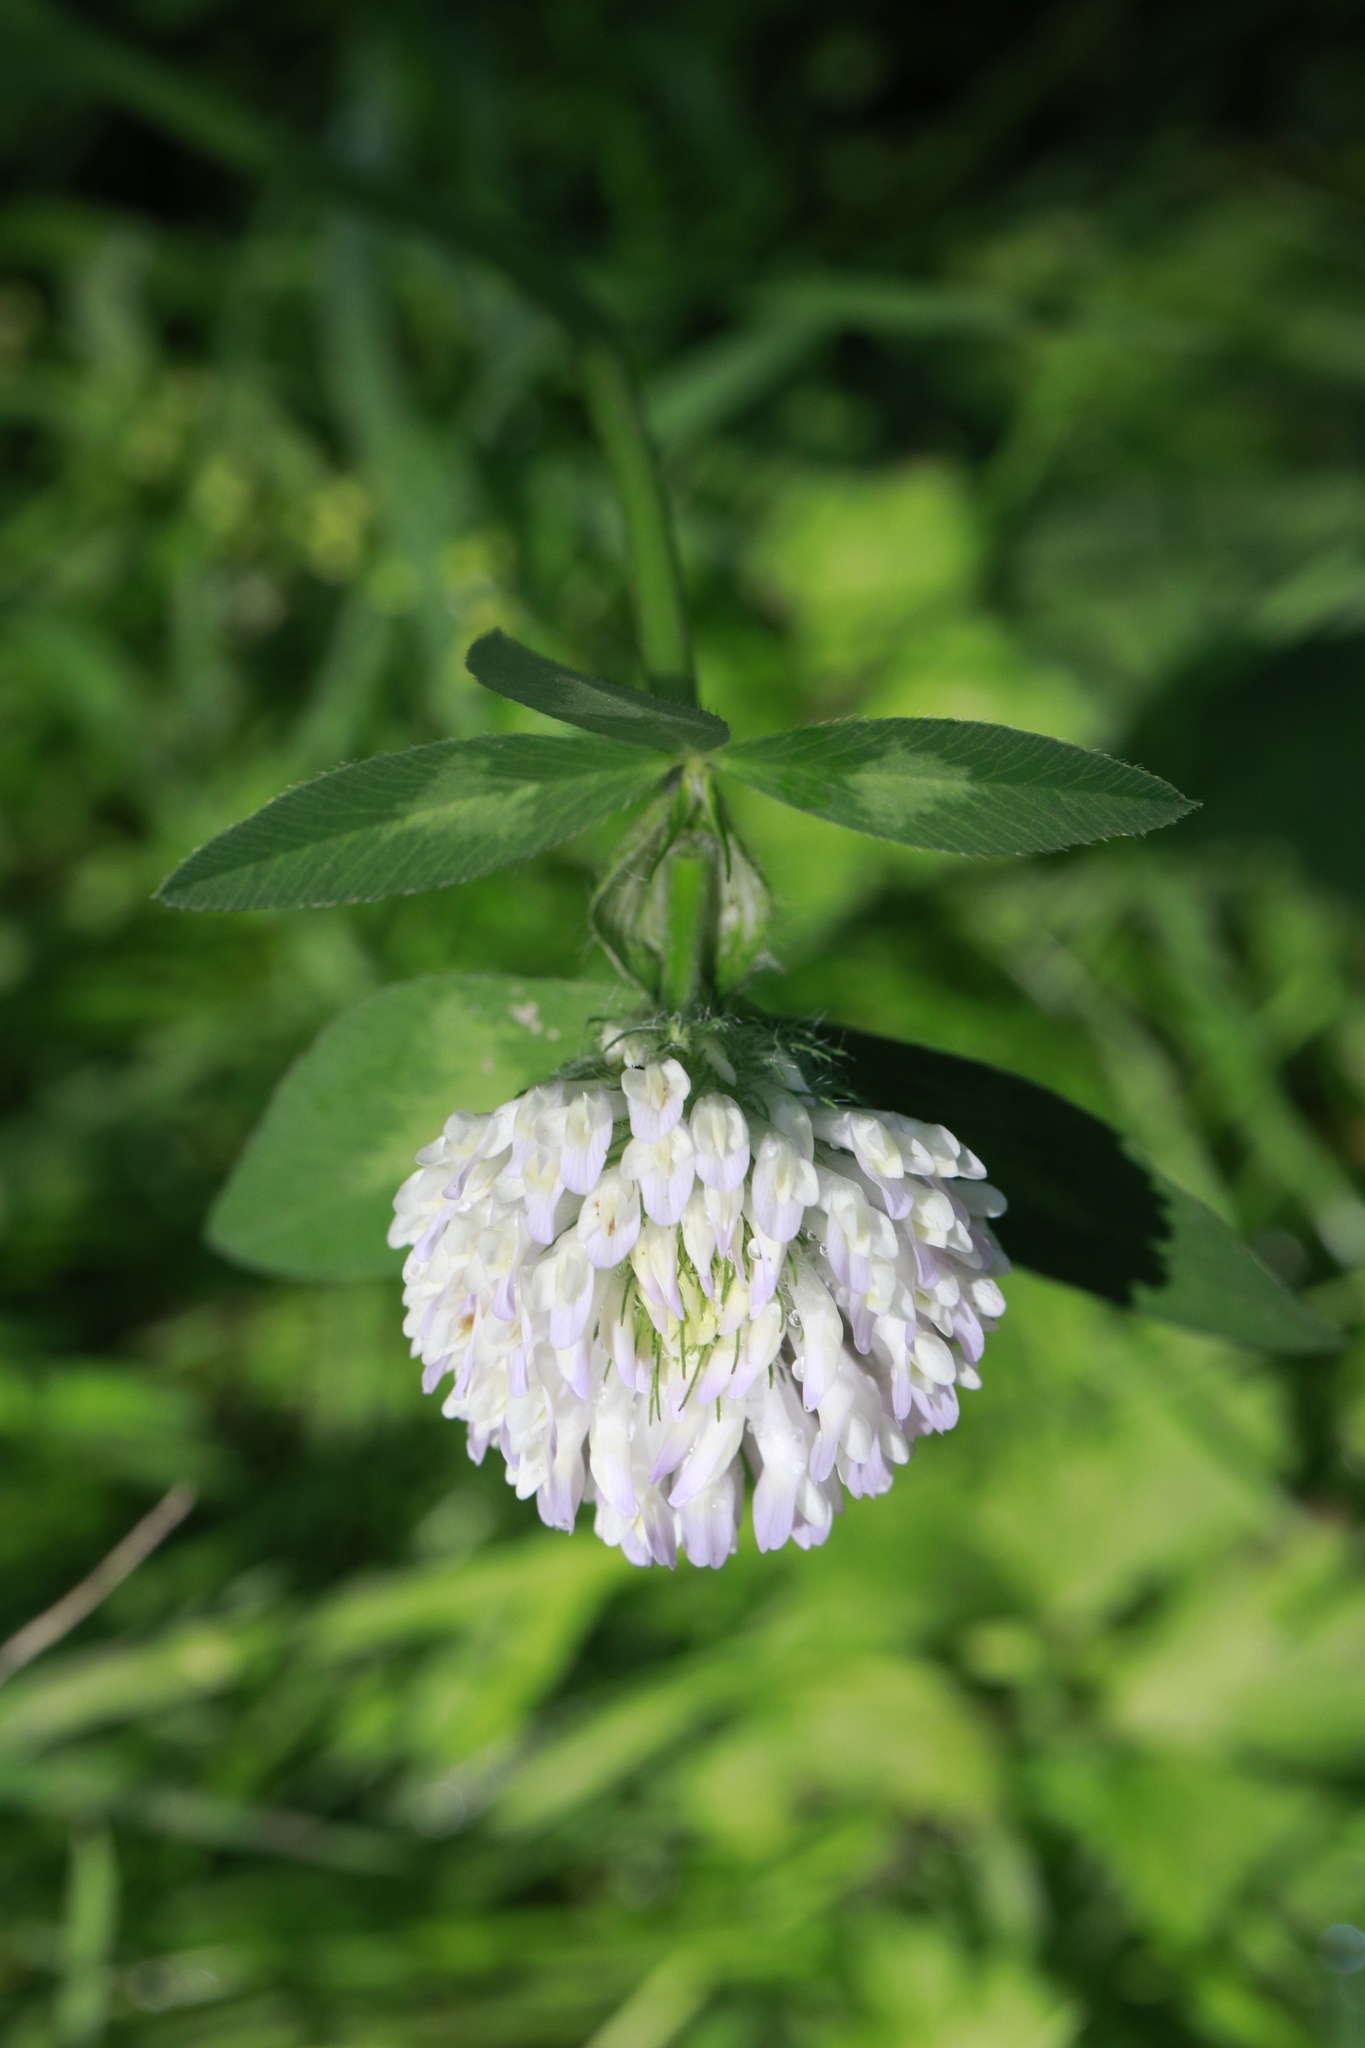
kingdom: Plantae
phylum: Tracheophyta
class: Magnoliopsida
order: Fabales
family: Fabaceae
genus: Trifolium
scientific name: Trifolium pratense
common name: Red clover
